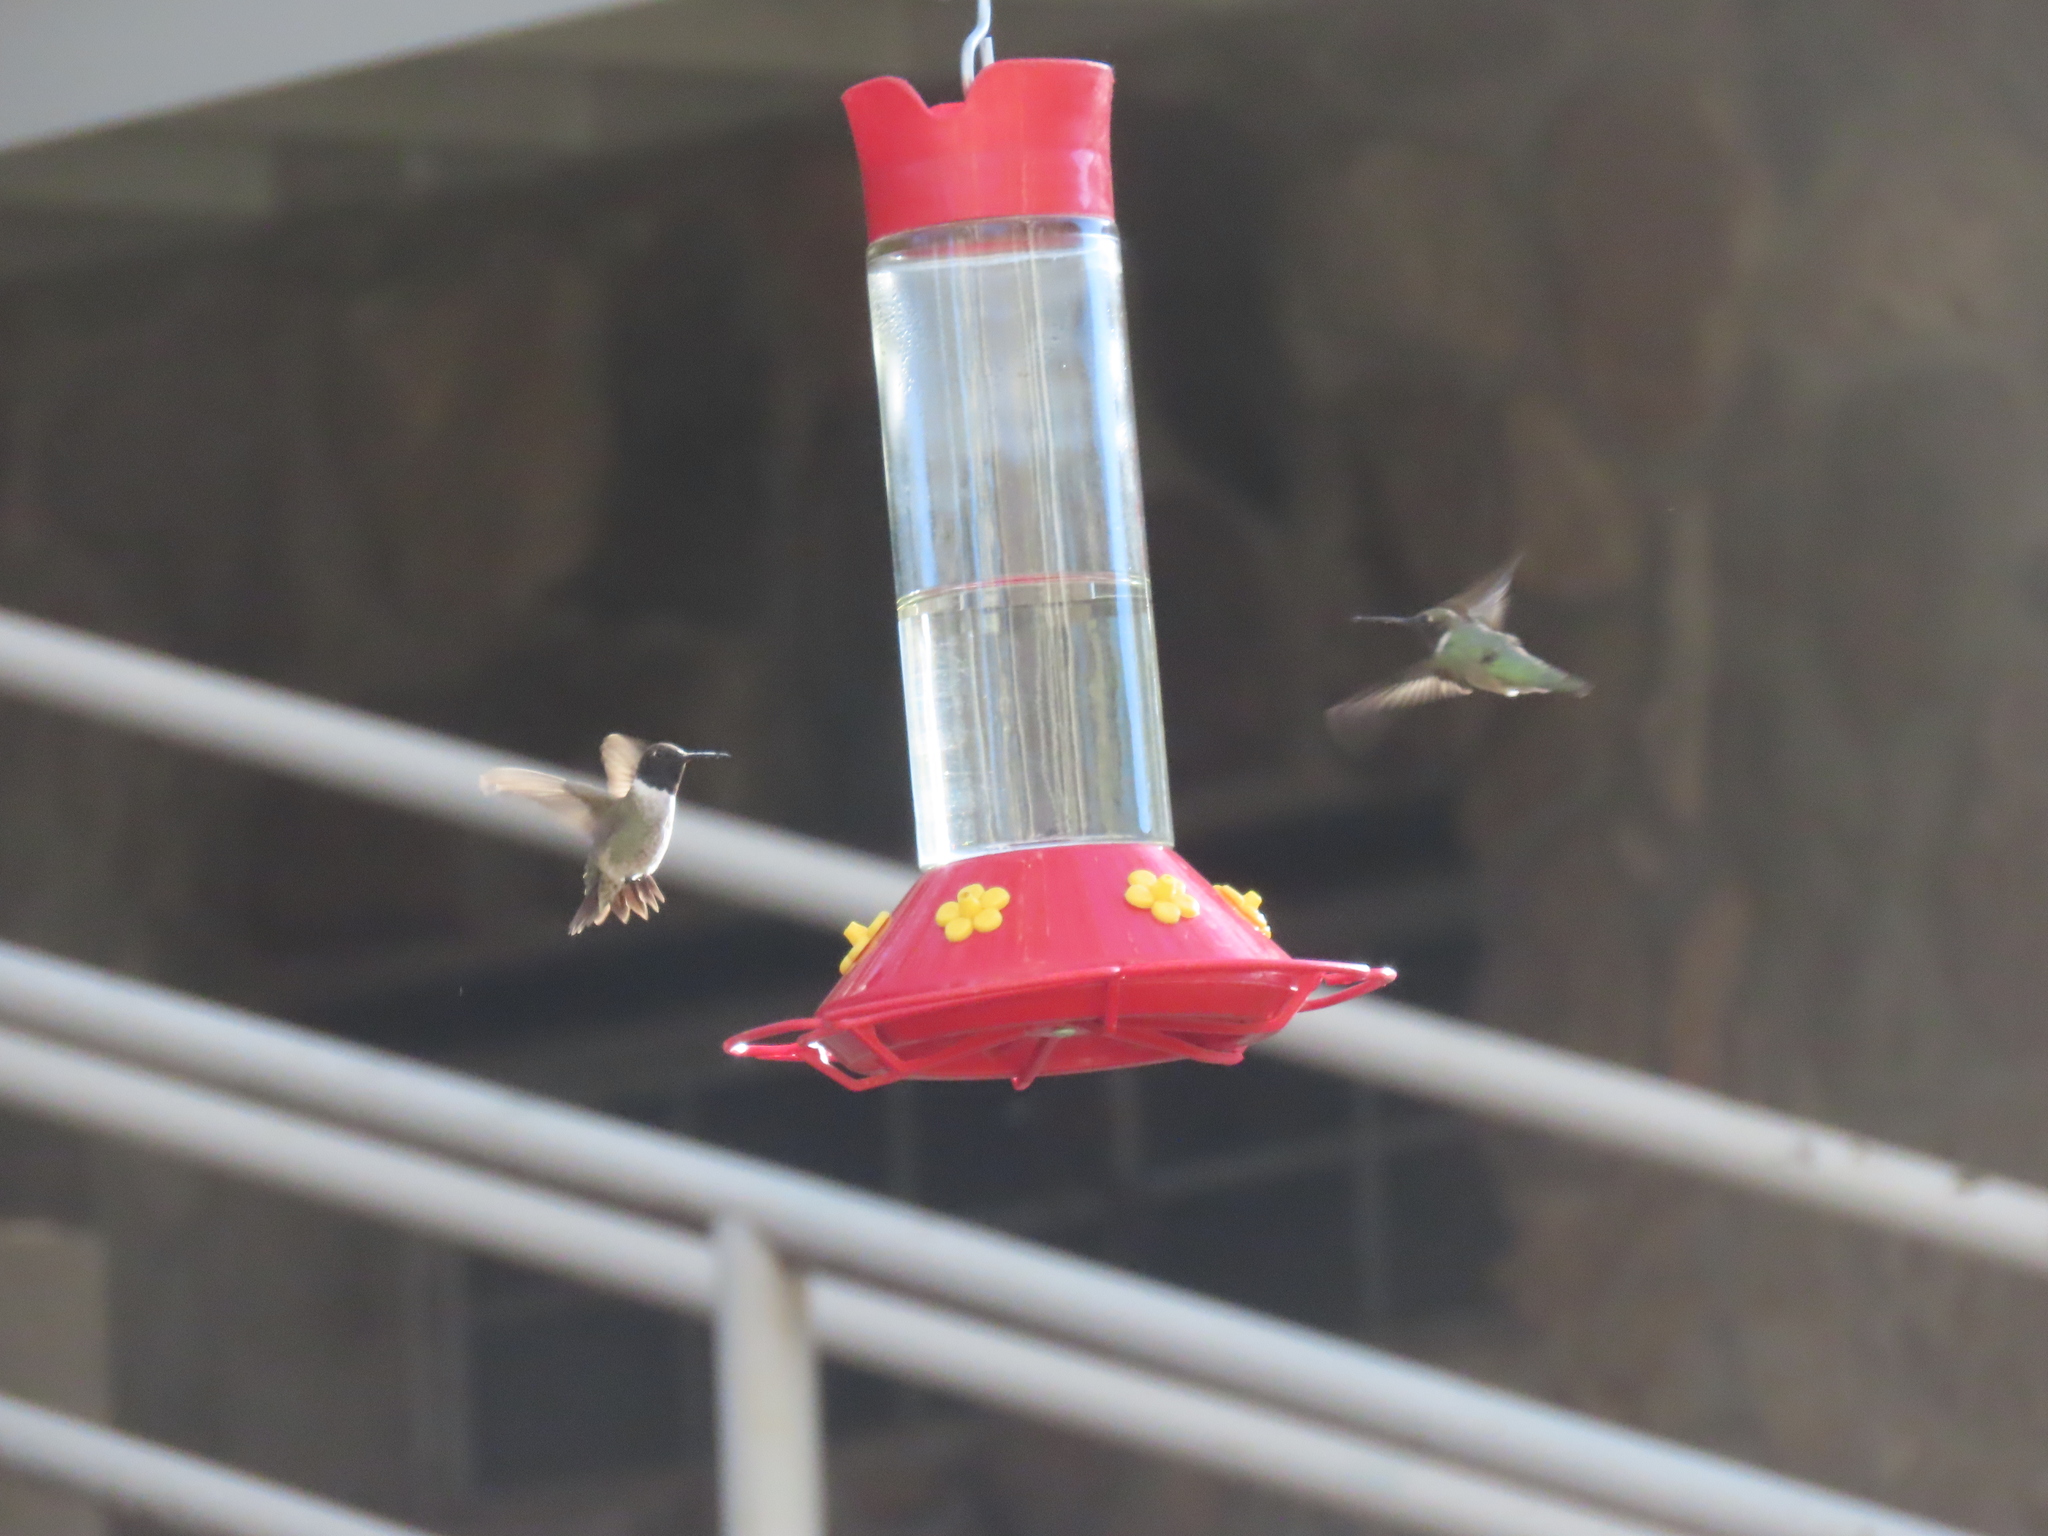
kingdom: Animalia
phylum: Chordata
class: Aves
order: Apodiformes
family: Trochilidae
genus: Archilochus
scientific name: Archilochus alexandri
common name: Black-chinned hummingbird
